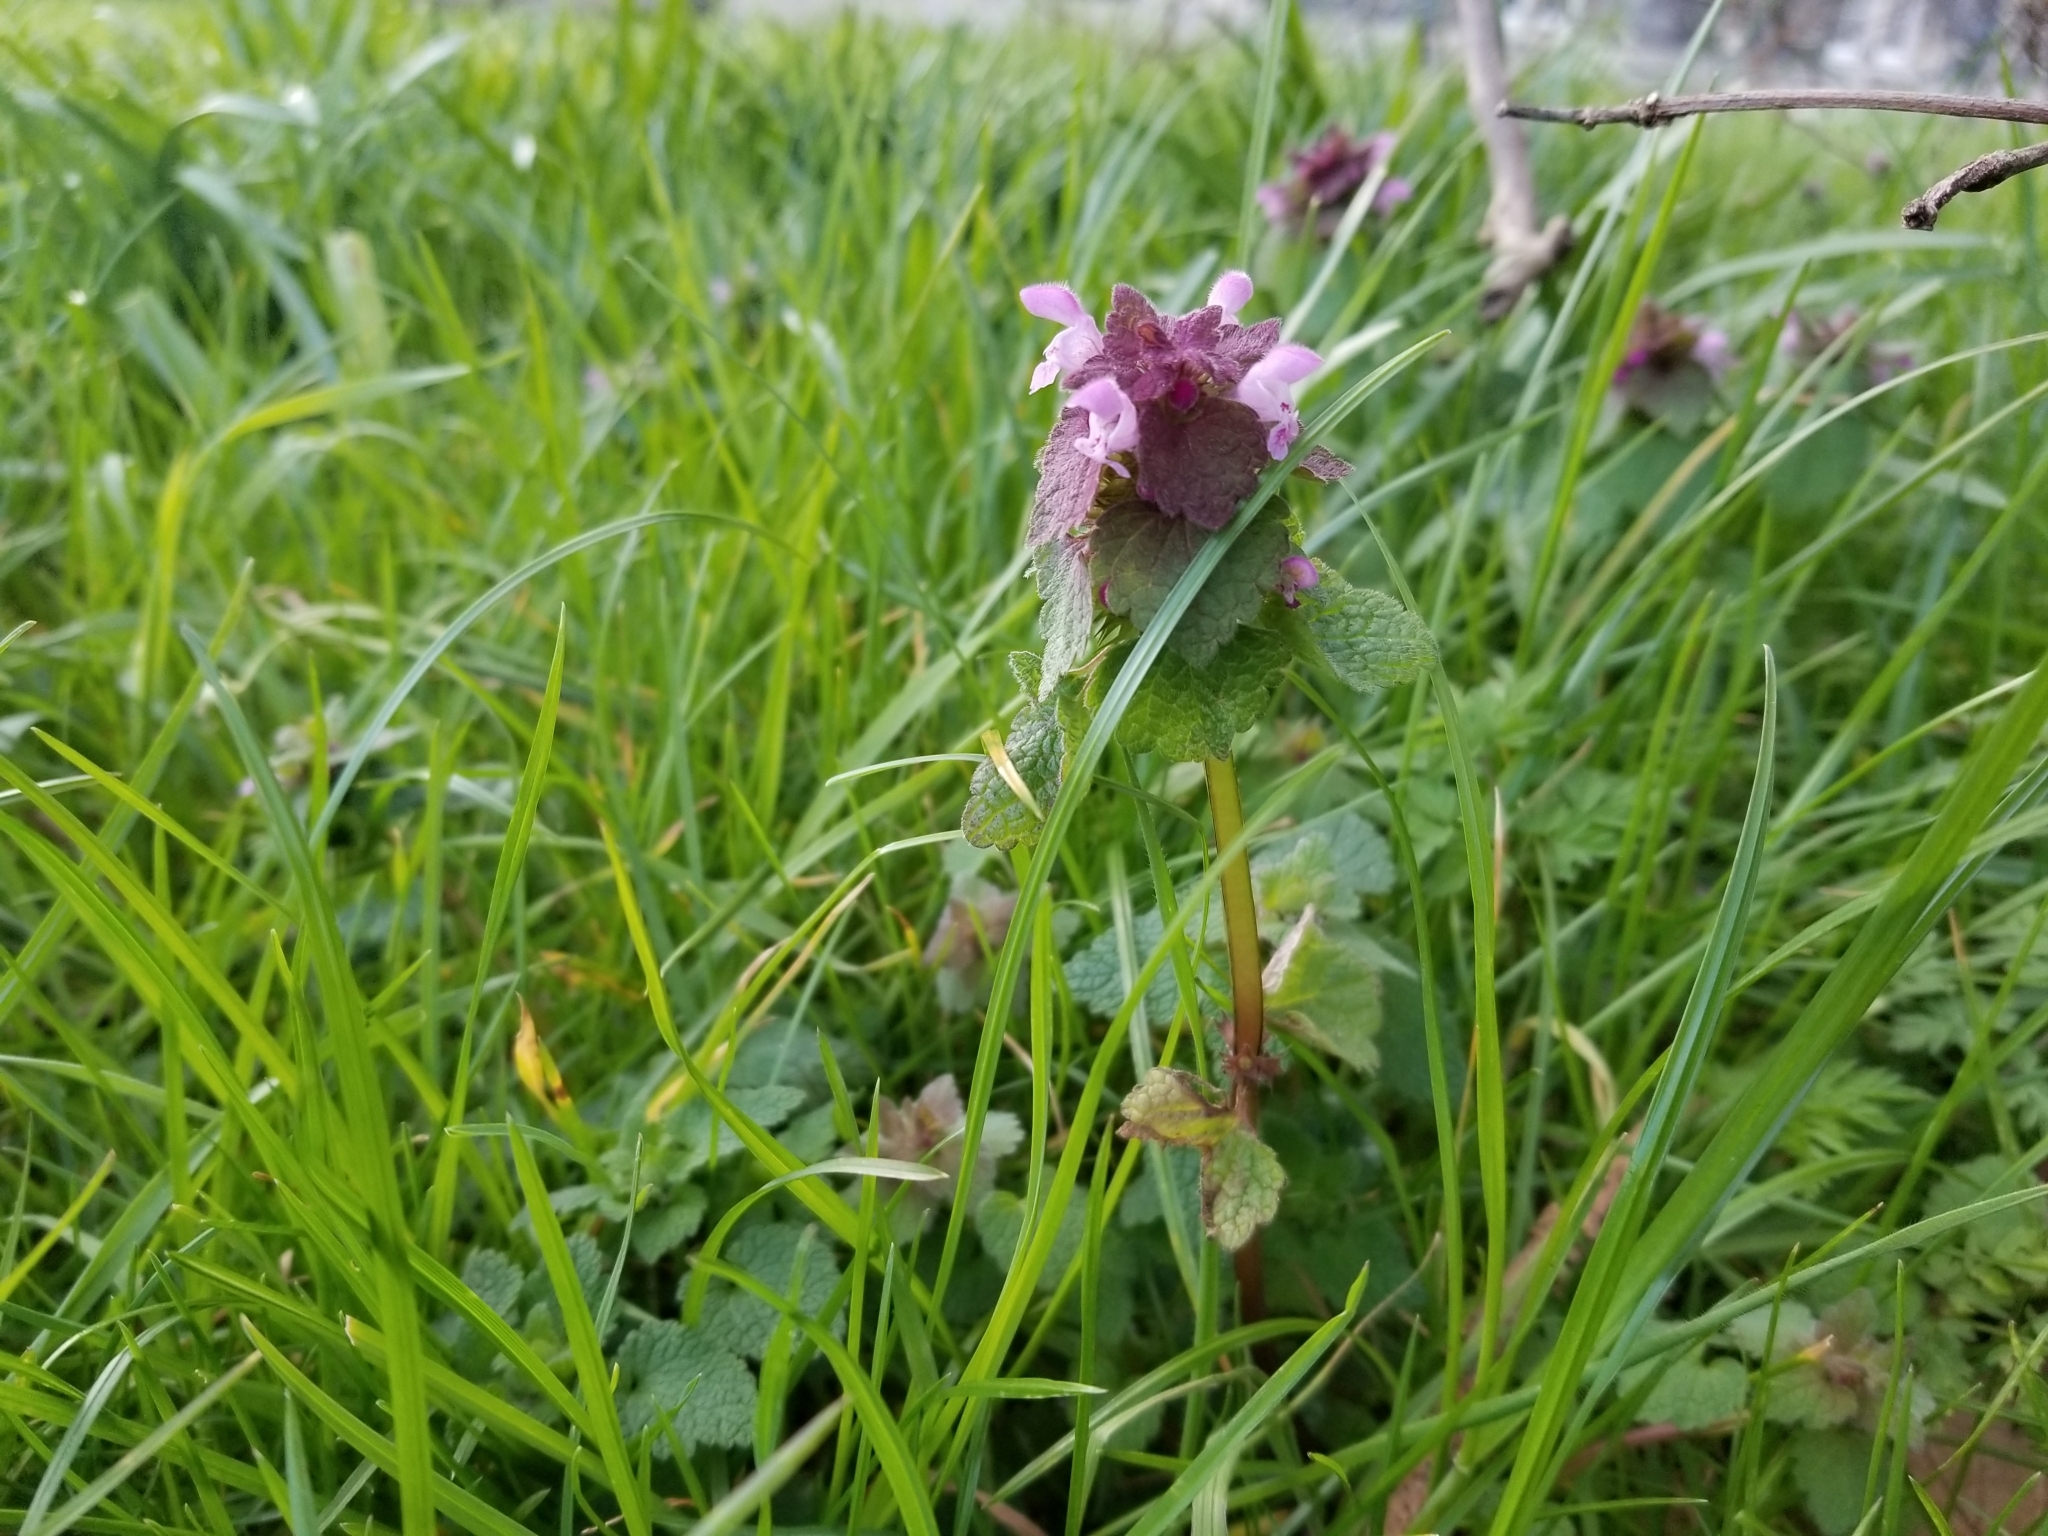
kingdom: Plantae
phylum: Tracheophyta
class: Magnoliopsida
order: Lamiales
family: Lamiaceae
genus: Lamium
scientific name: Lamium purpureum
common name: Red dead-nettle
